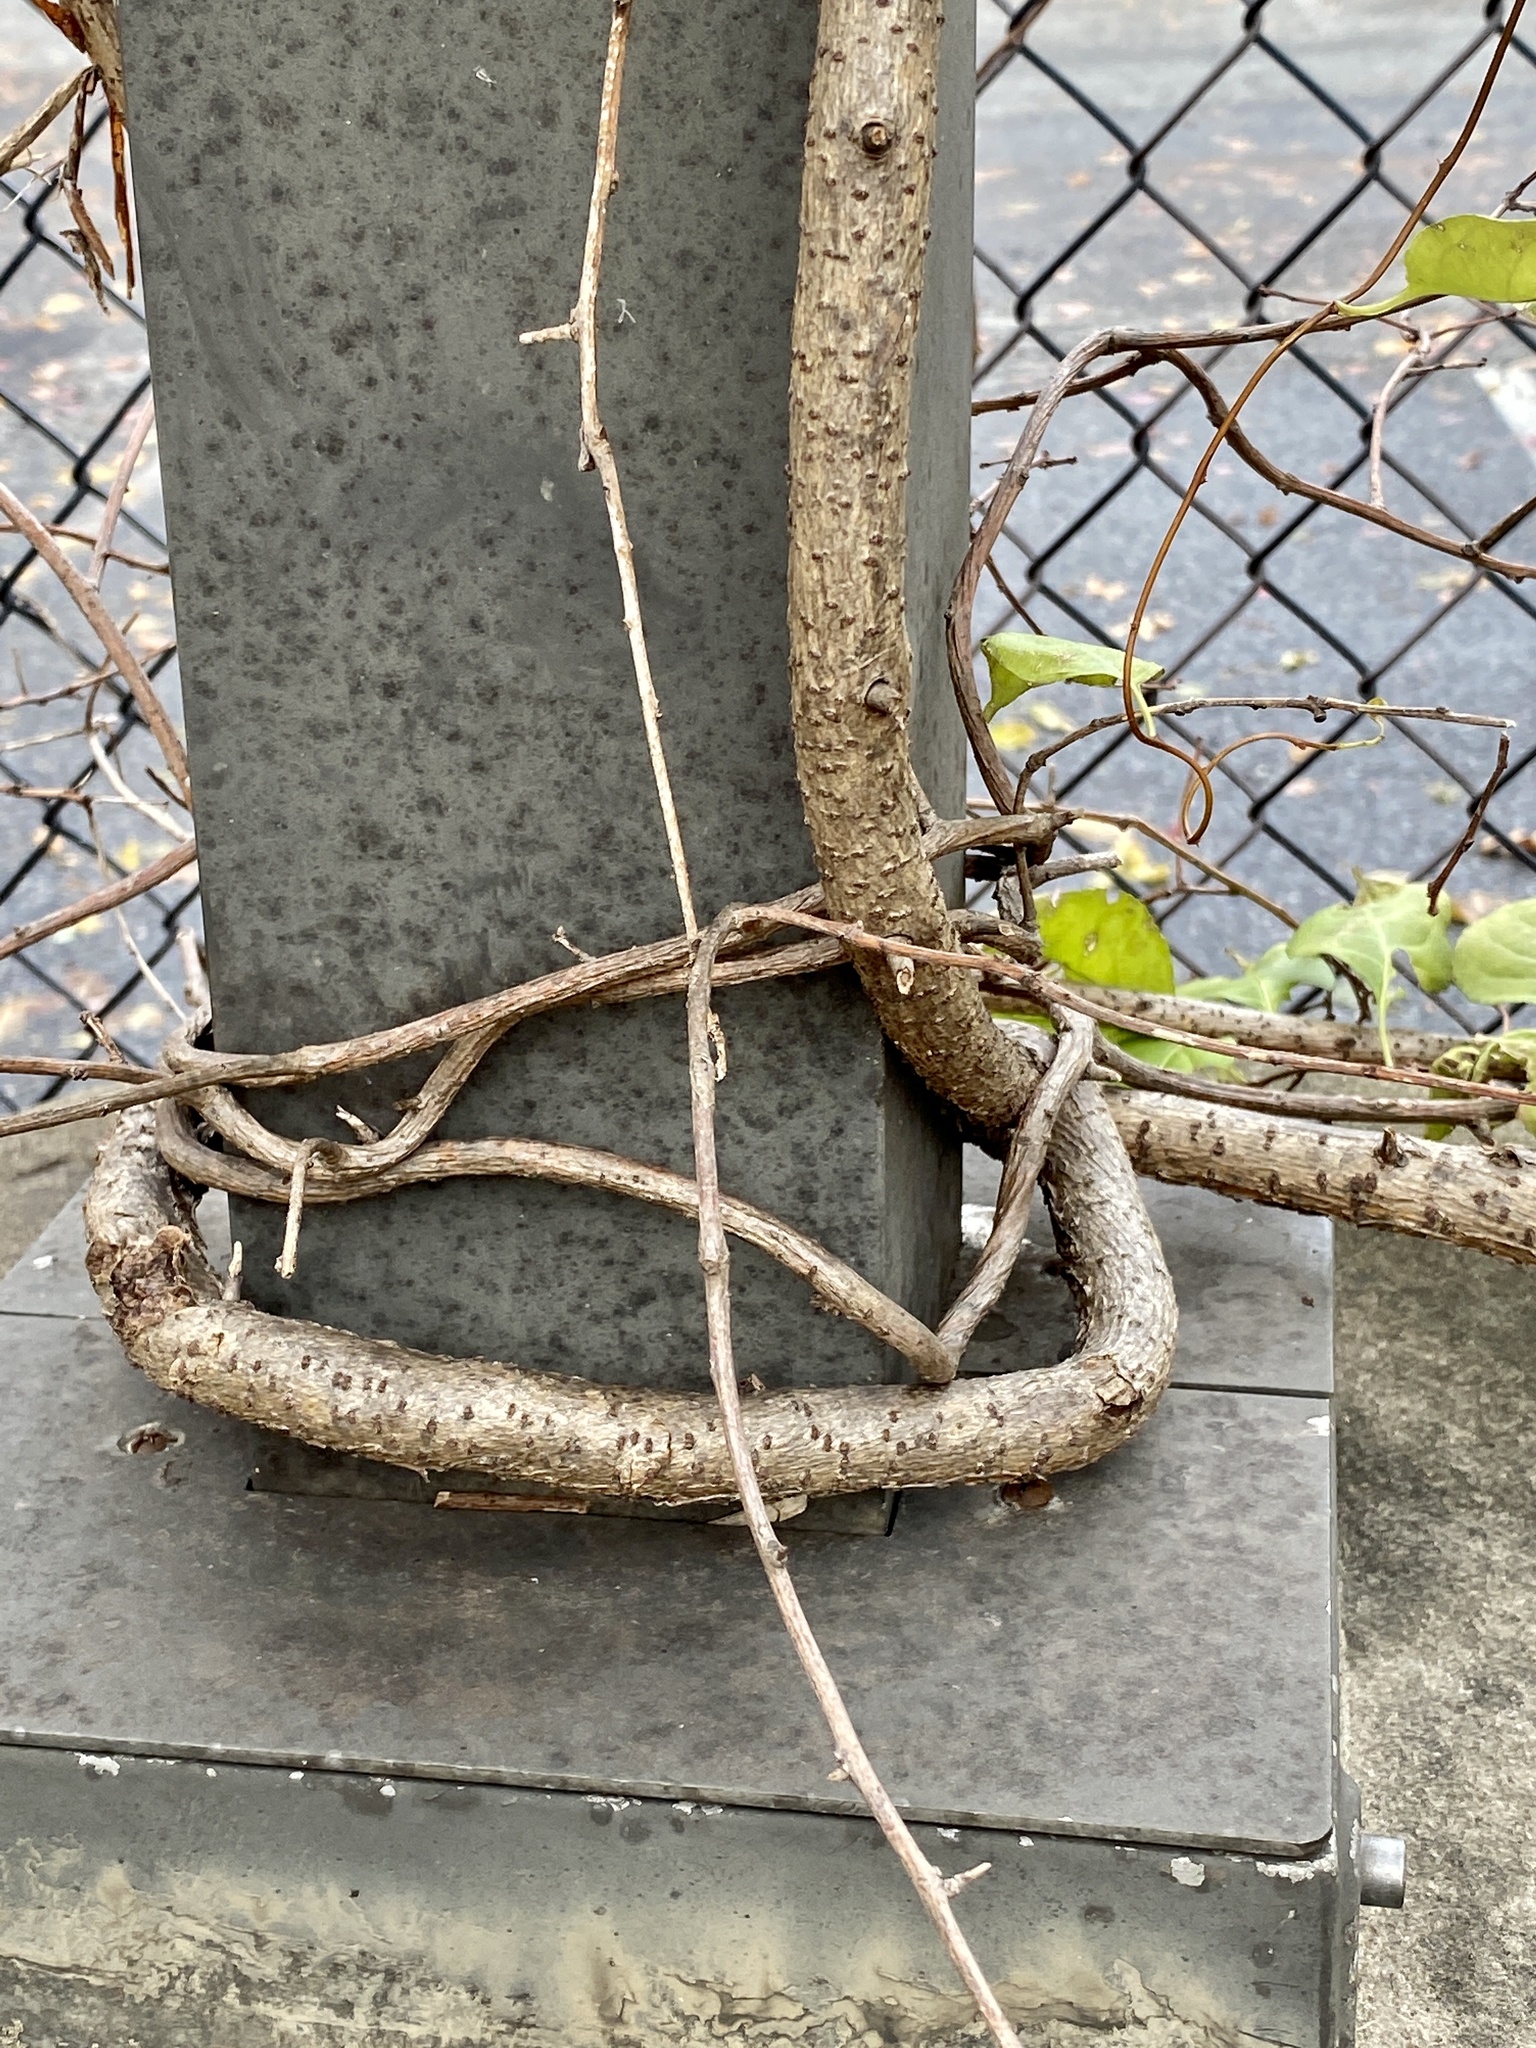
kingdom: Plantae
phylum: Tracheophyta
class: Magnoliopsida
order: Celastrales
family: Celastraceae
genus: Celastrus
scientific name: Celastrus orbiculatus
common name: Oriental bittersweet
